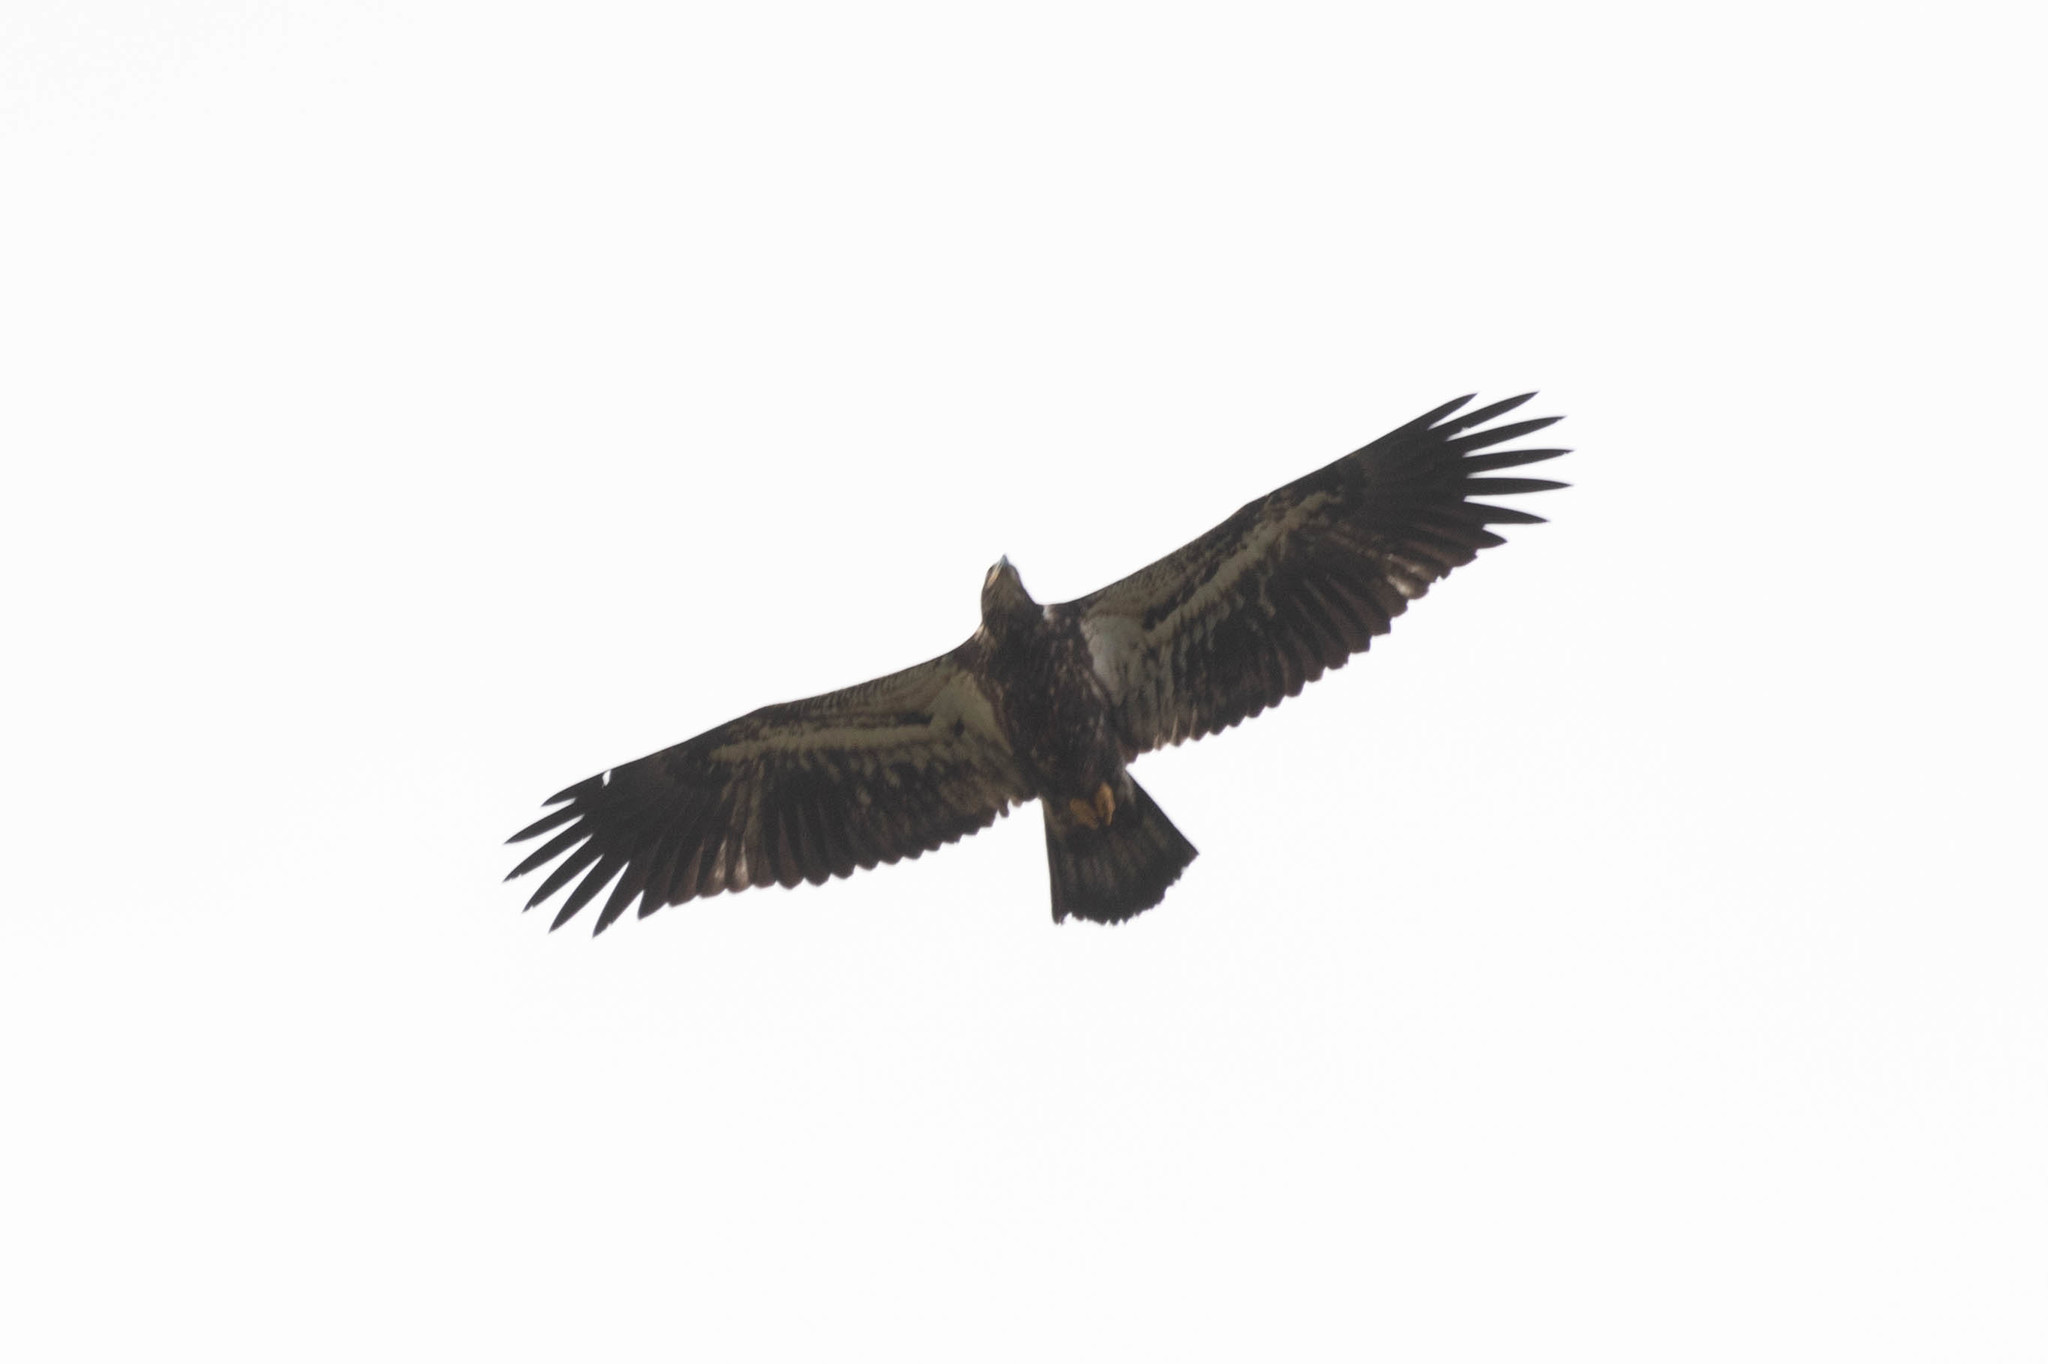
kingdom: Animalia
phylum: Chordata
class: Aves
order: Accipitriformes
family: Accipitridae
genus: Haliaeetus
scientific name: Haliaeetus leucocephalus
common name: Bald eagle
